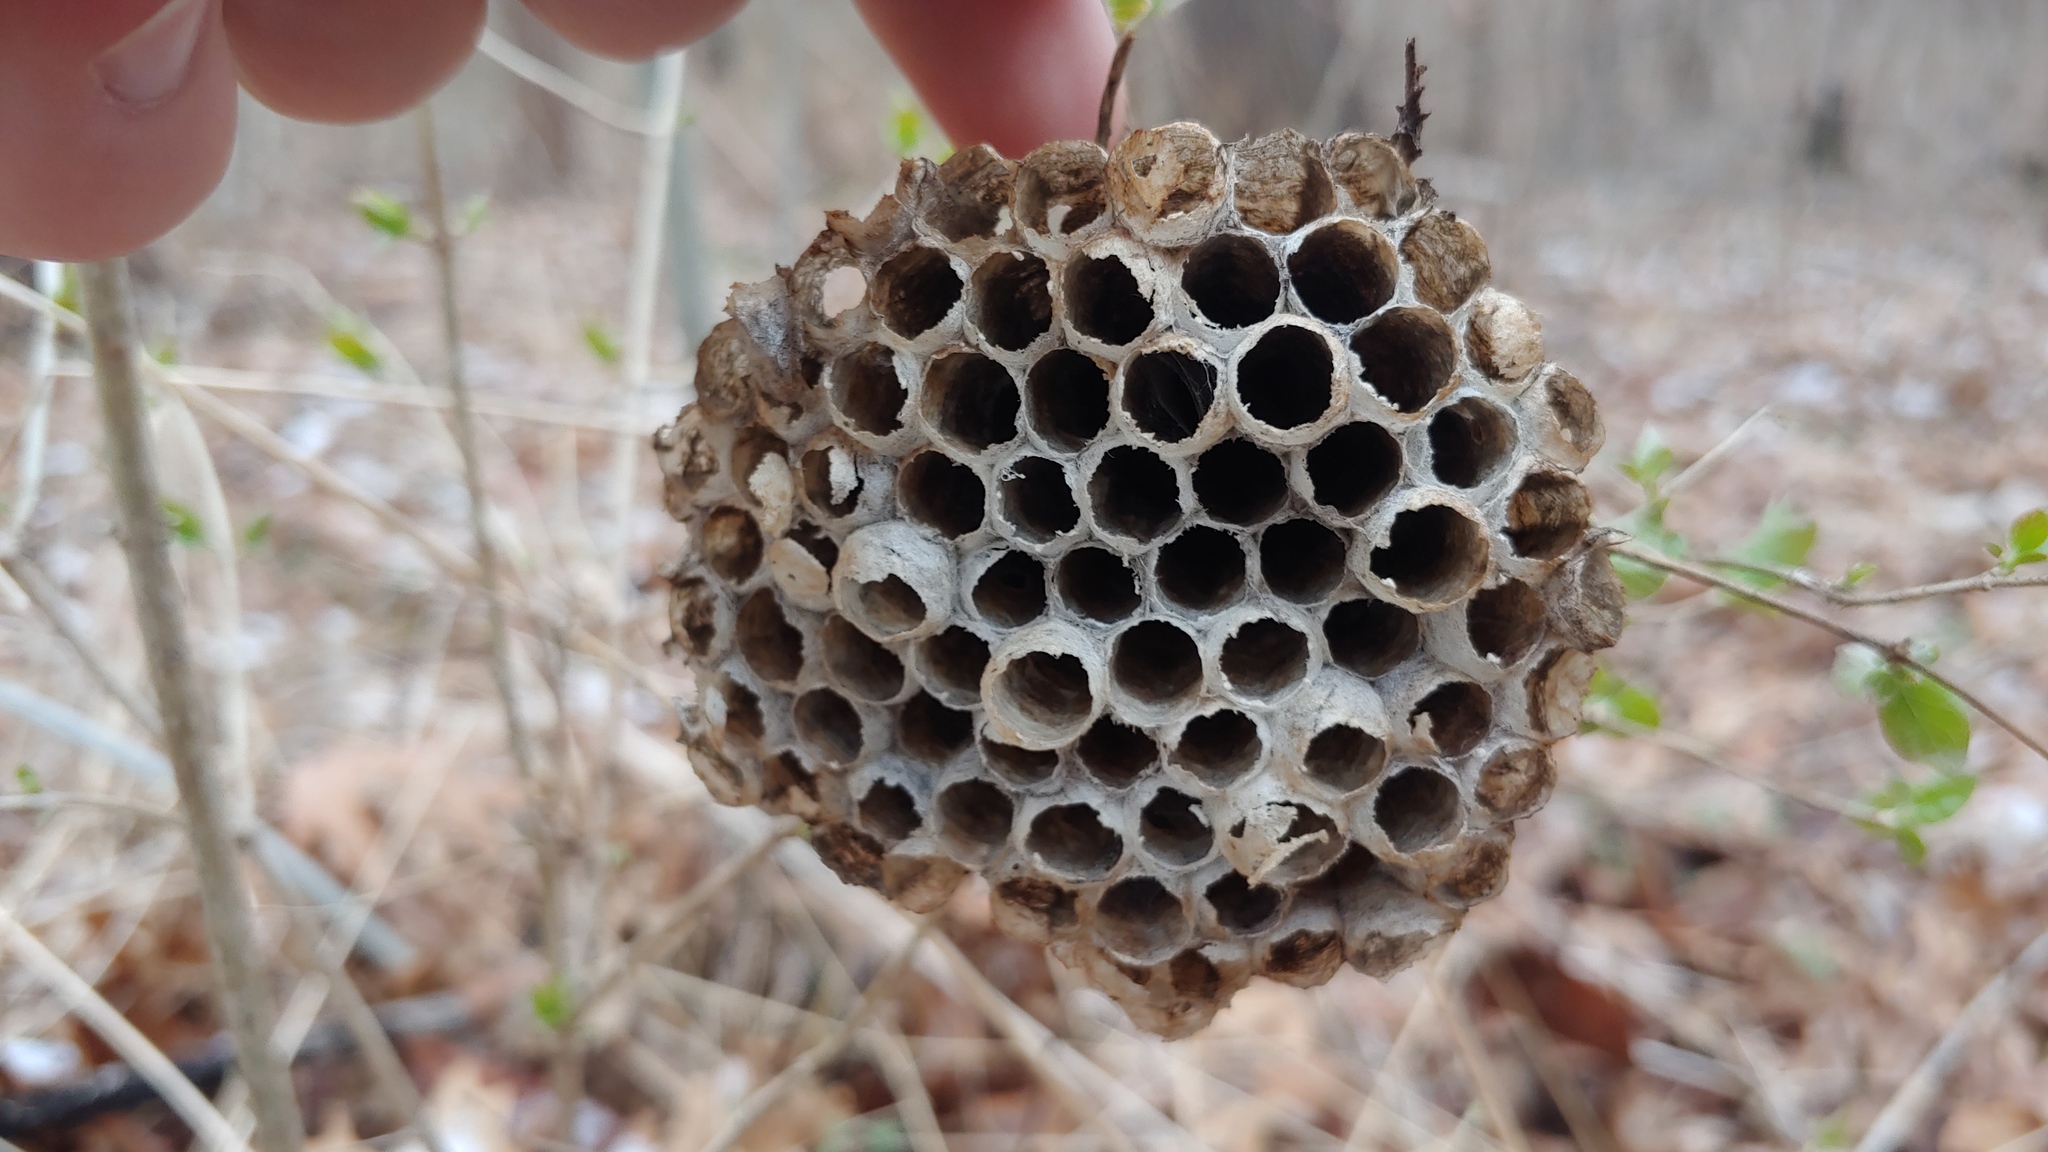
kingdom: Animalia
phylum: Arthropoda
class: Insecta
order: Hymenoptera
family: Eumenidae
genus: Polistes
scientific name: Polistes
